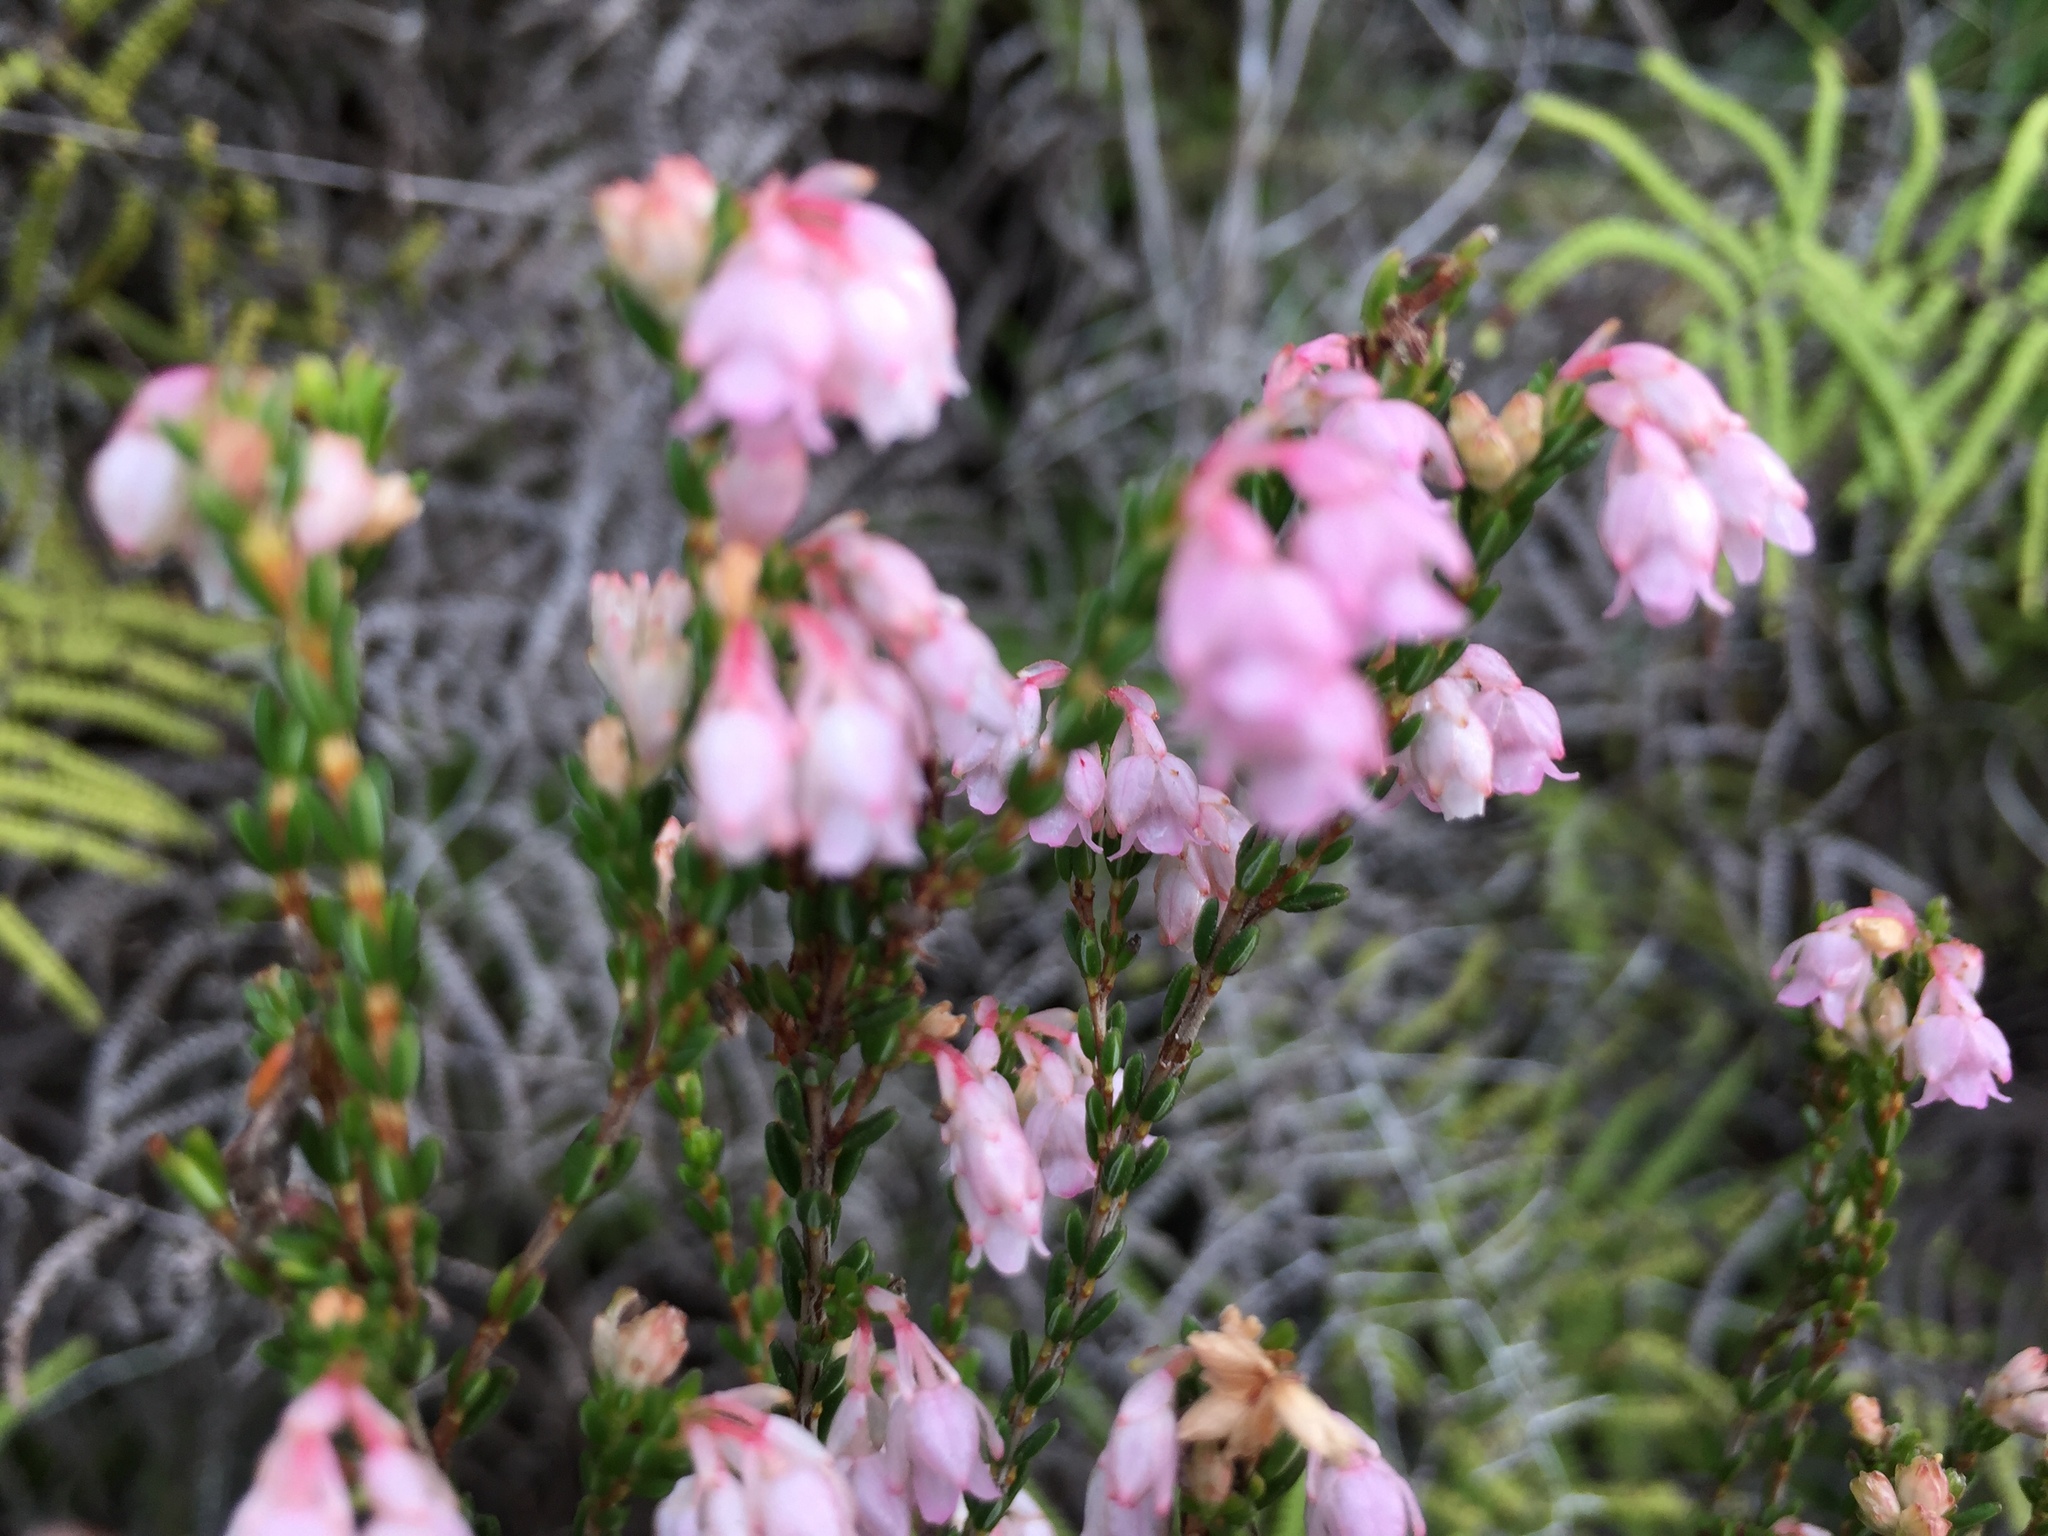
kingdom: Plantae
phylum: Tracheophyta
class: Magnoliopsida
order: Ericales
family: Ericaceae
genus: Erica
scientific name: Erica brevifolia
